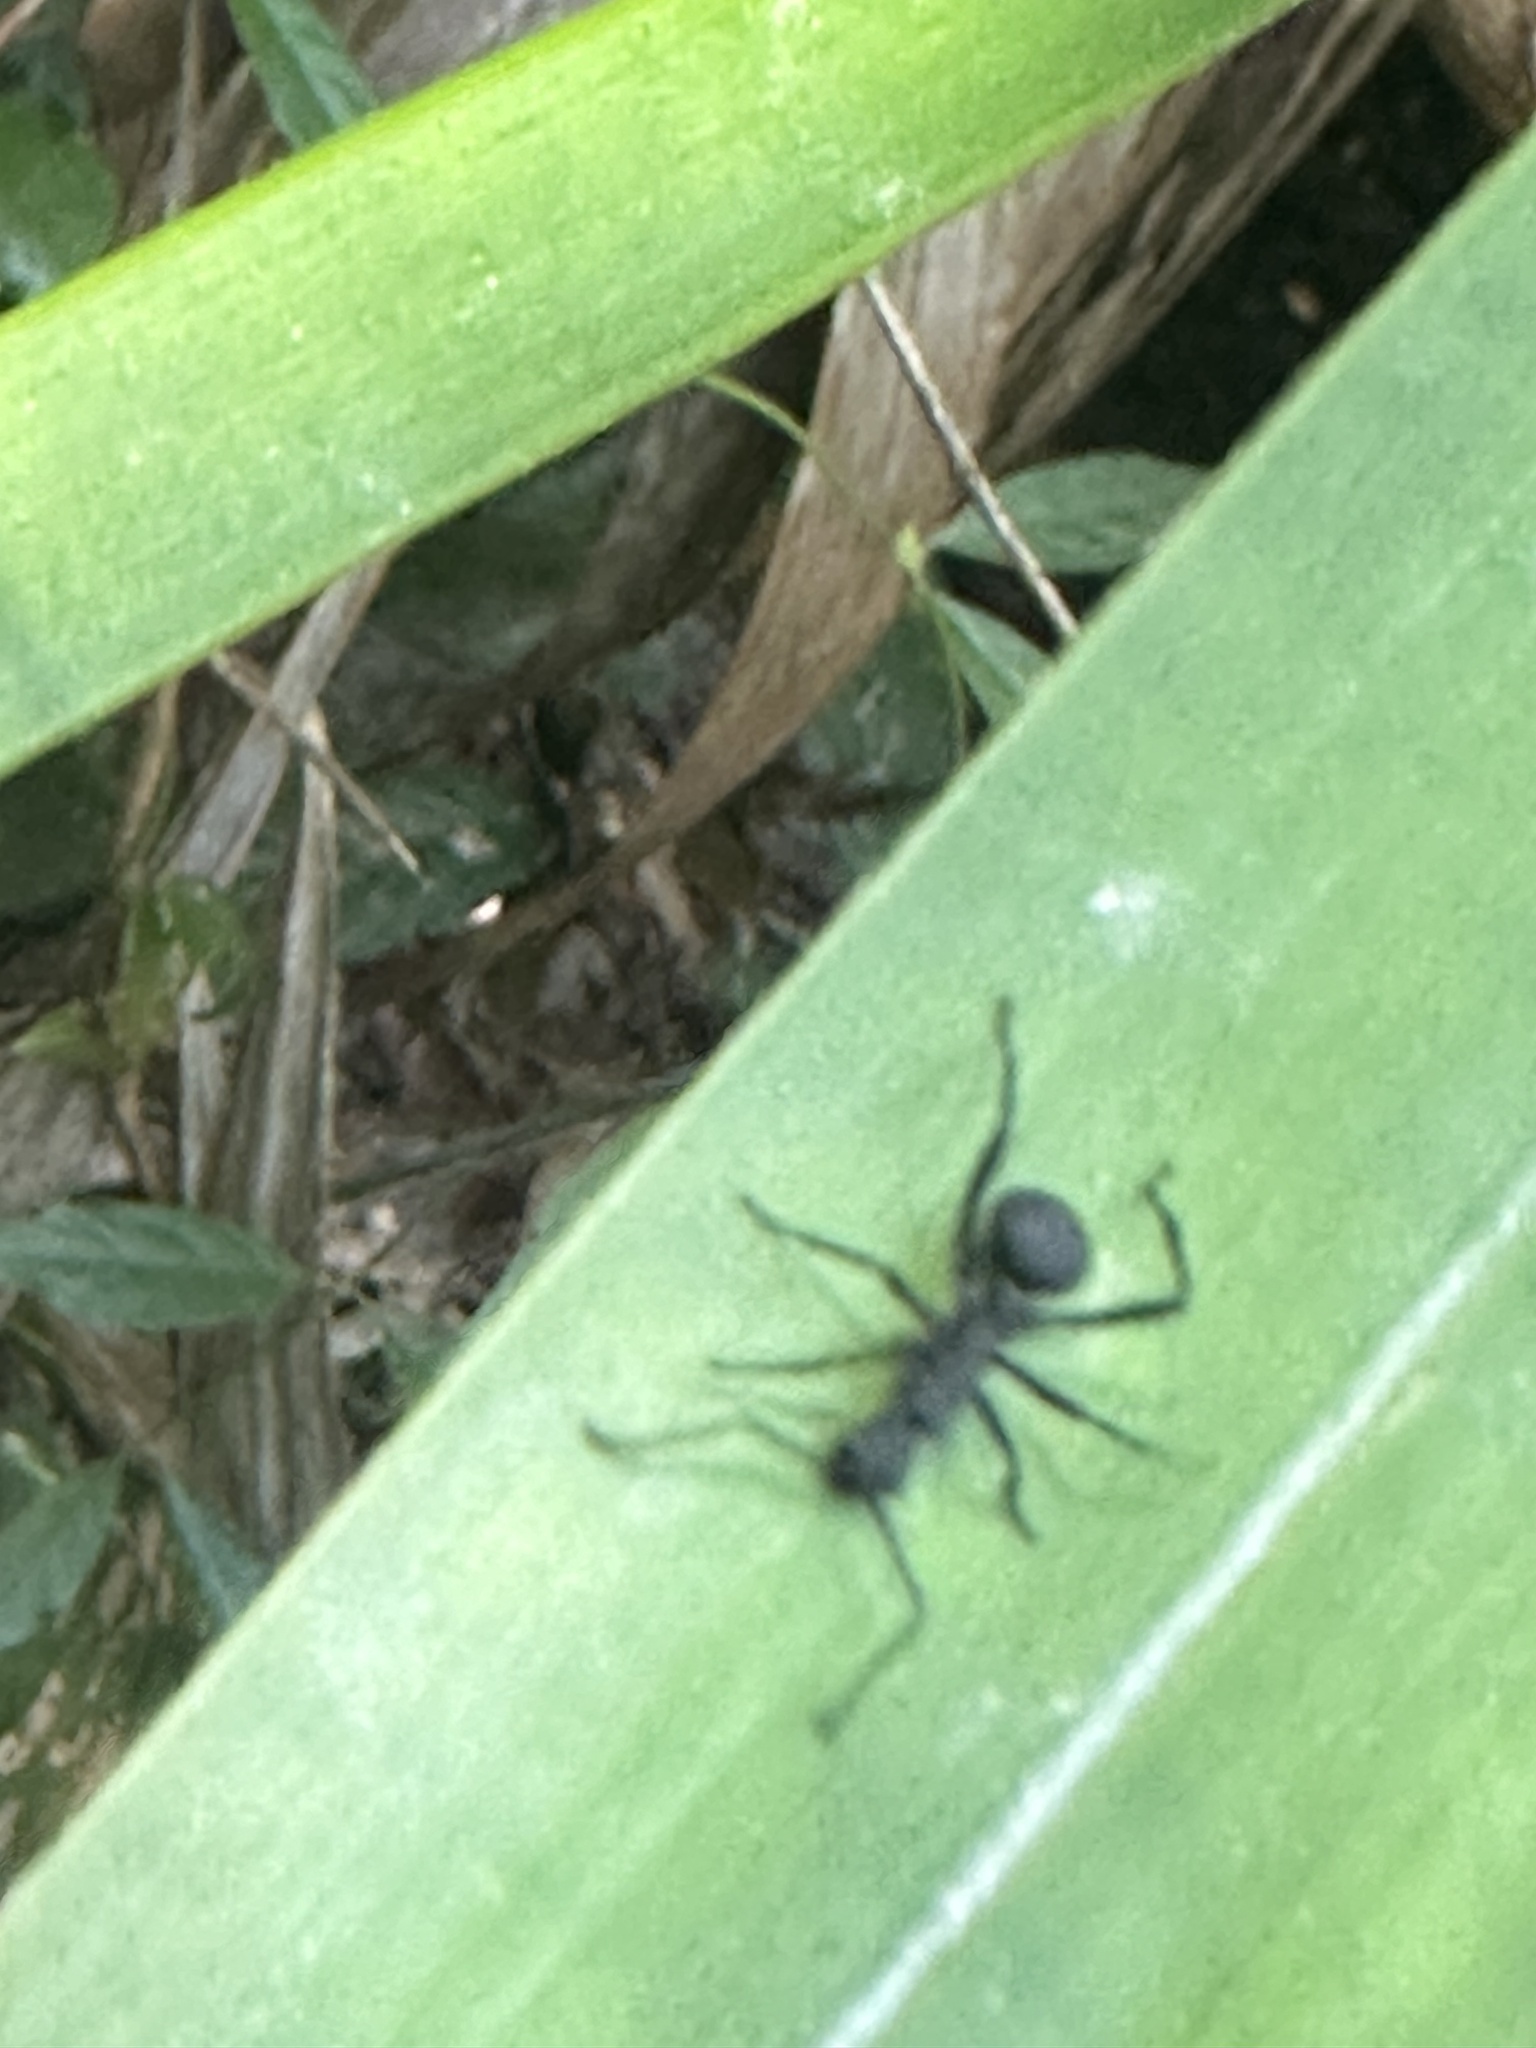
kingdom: Animalia
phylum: Arthropoda
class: Insecta
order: Hymenoptera
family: Formicidae
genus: Polyrhachis
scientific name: Polyrhachis armata
